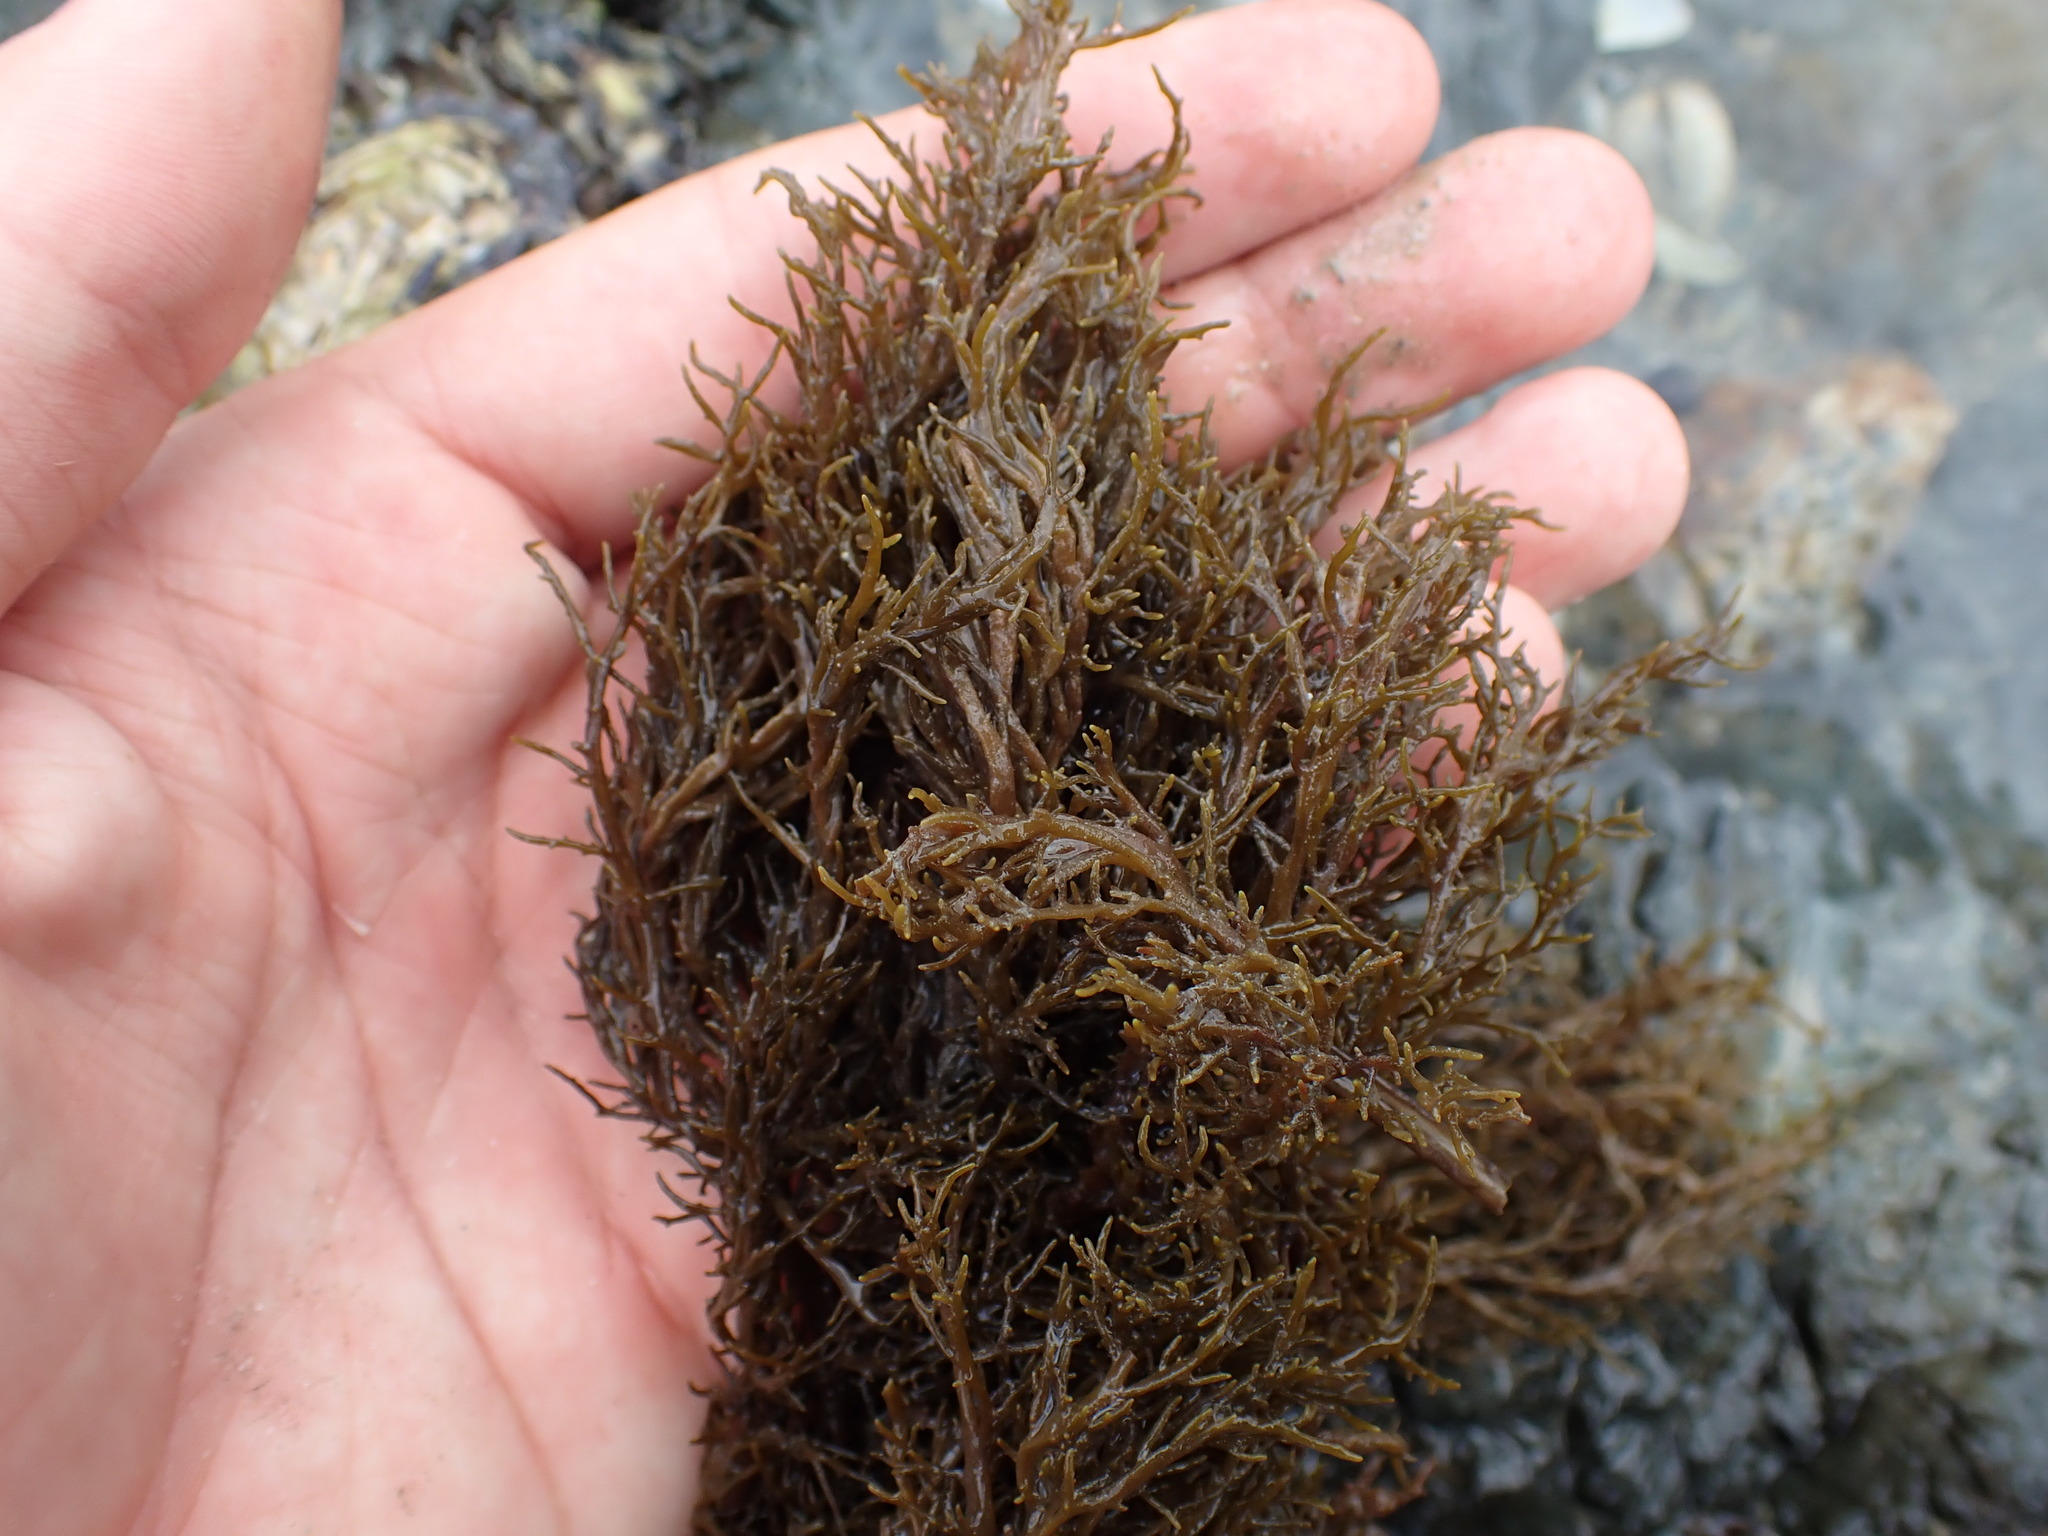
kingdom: Chromista
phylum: Ochrophyta
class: Phaeophyceae
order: Scytothamnales
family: Scytothamnaceae
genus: Scytothamnus
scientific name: Scytothamnus australis
